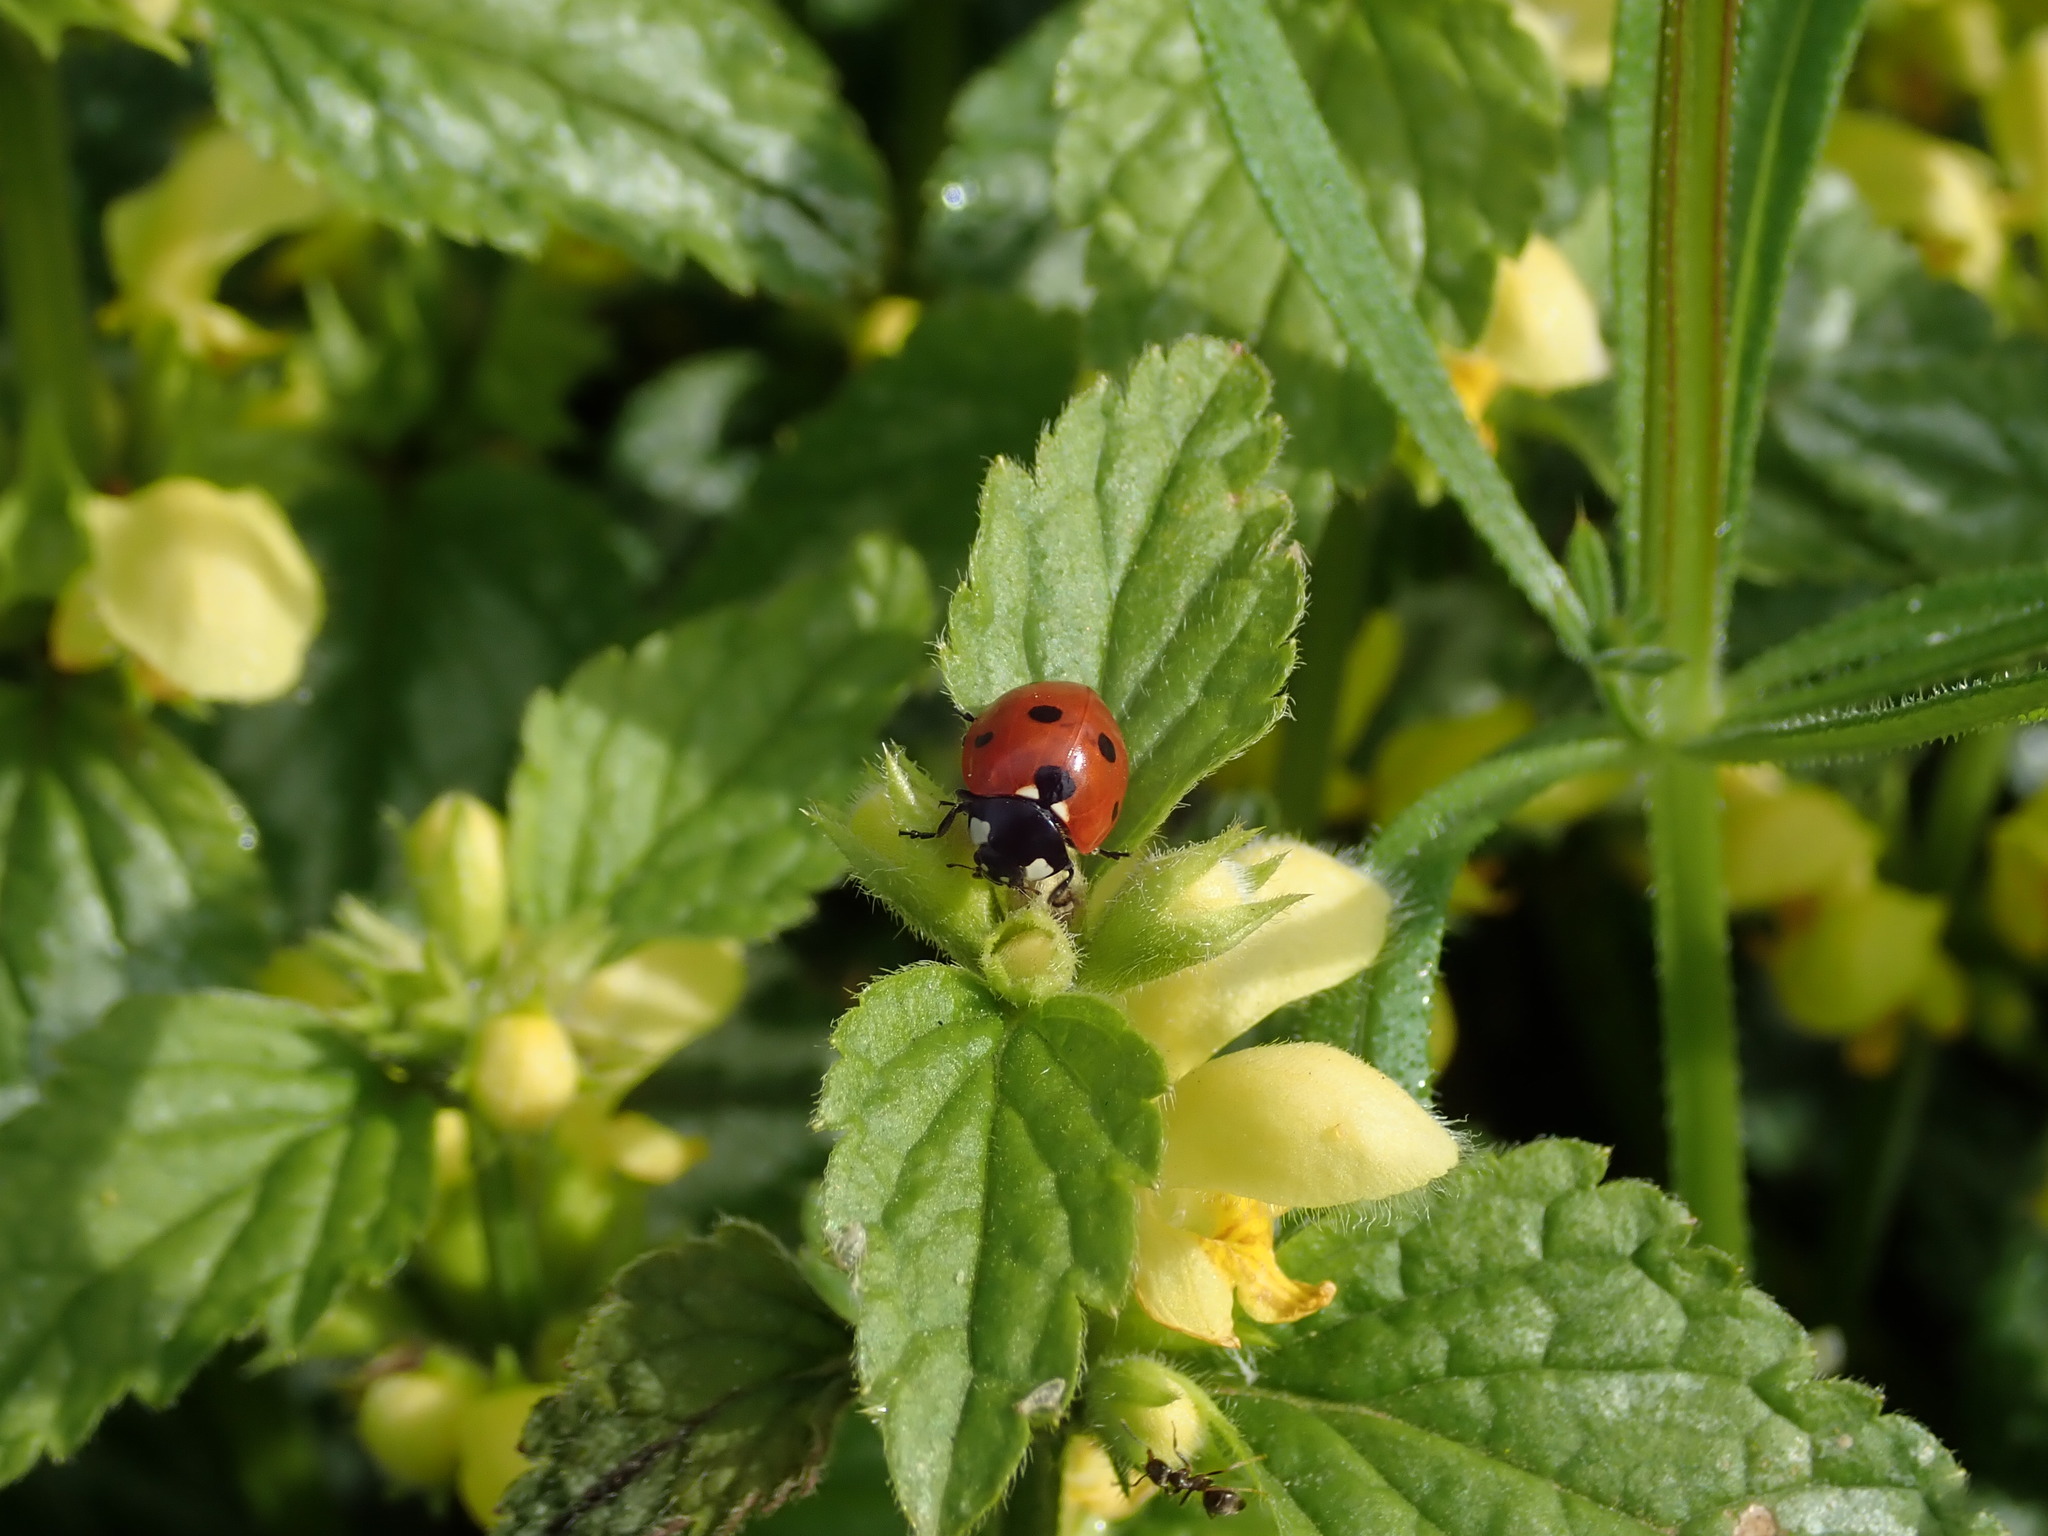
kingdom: Animalia
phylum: Arthropoda
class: Insecta
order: Coleoptera
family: Coccinellidae
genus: Coccinella
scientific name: Coccinella septempunctata
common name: Sevenspotted lady beetle
